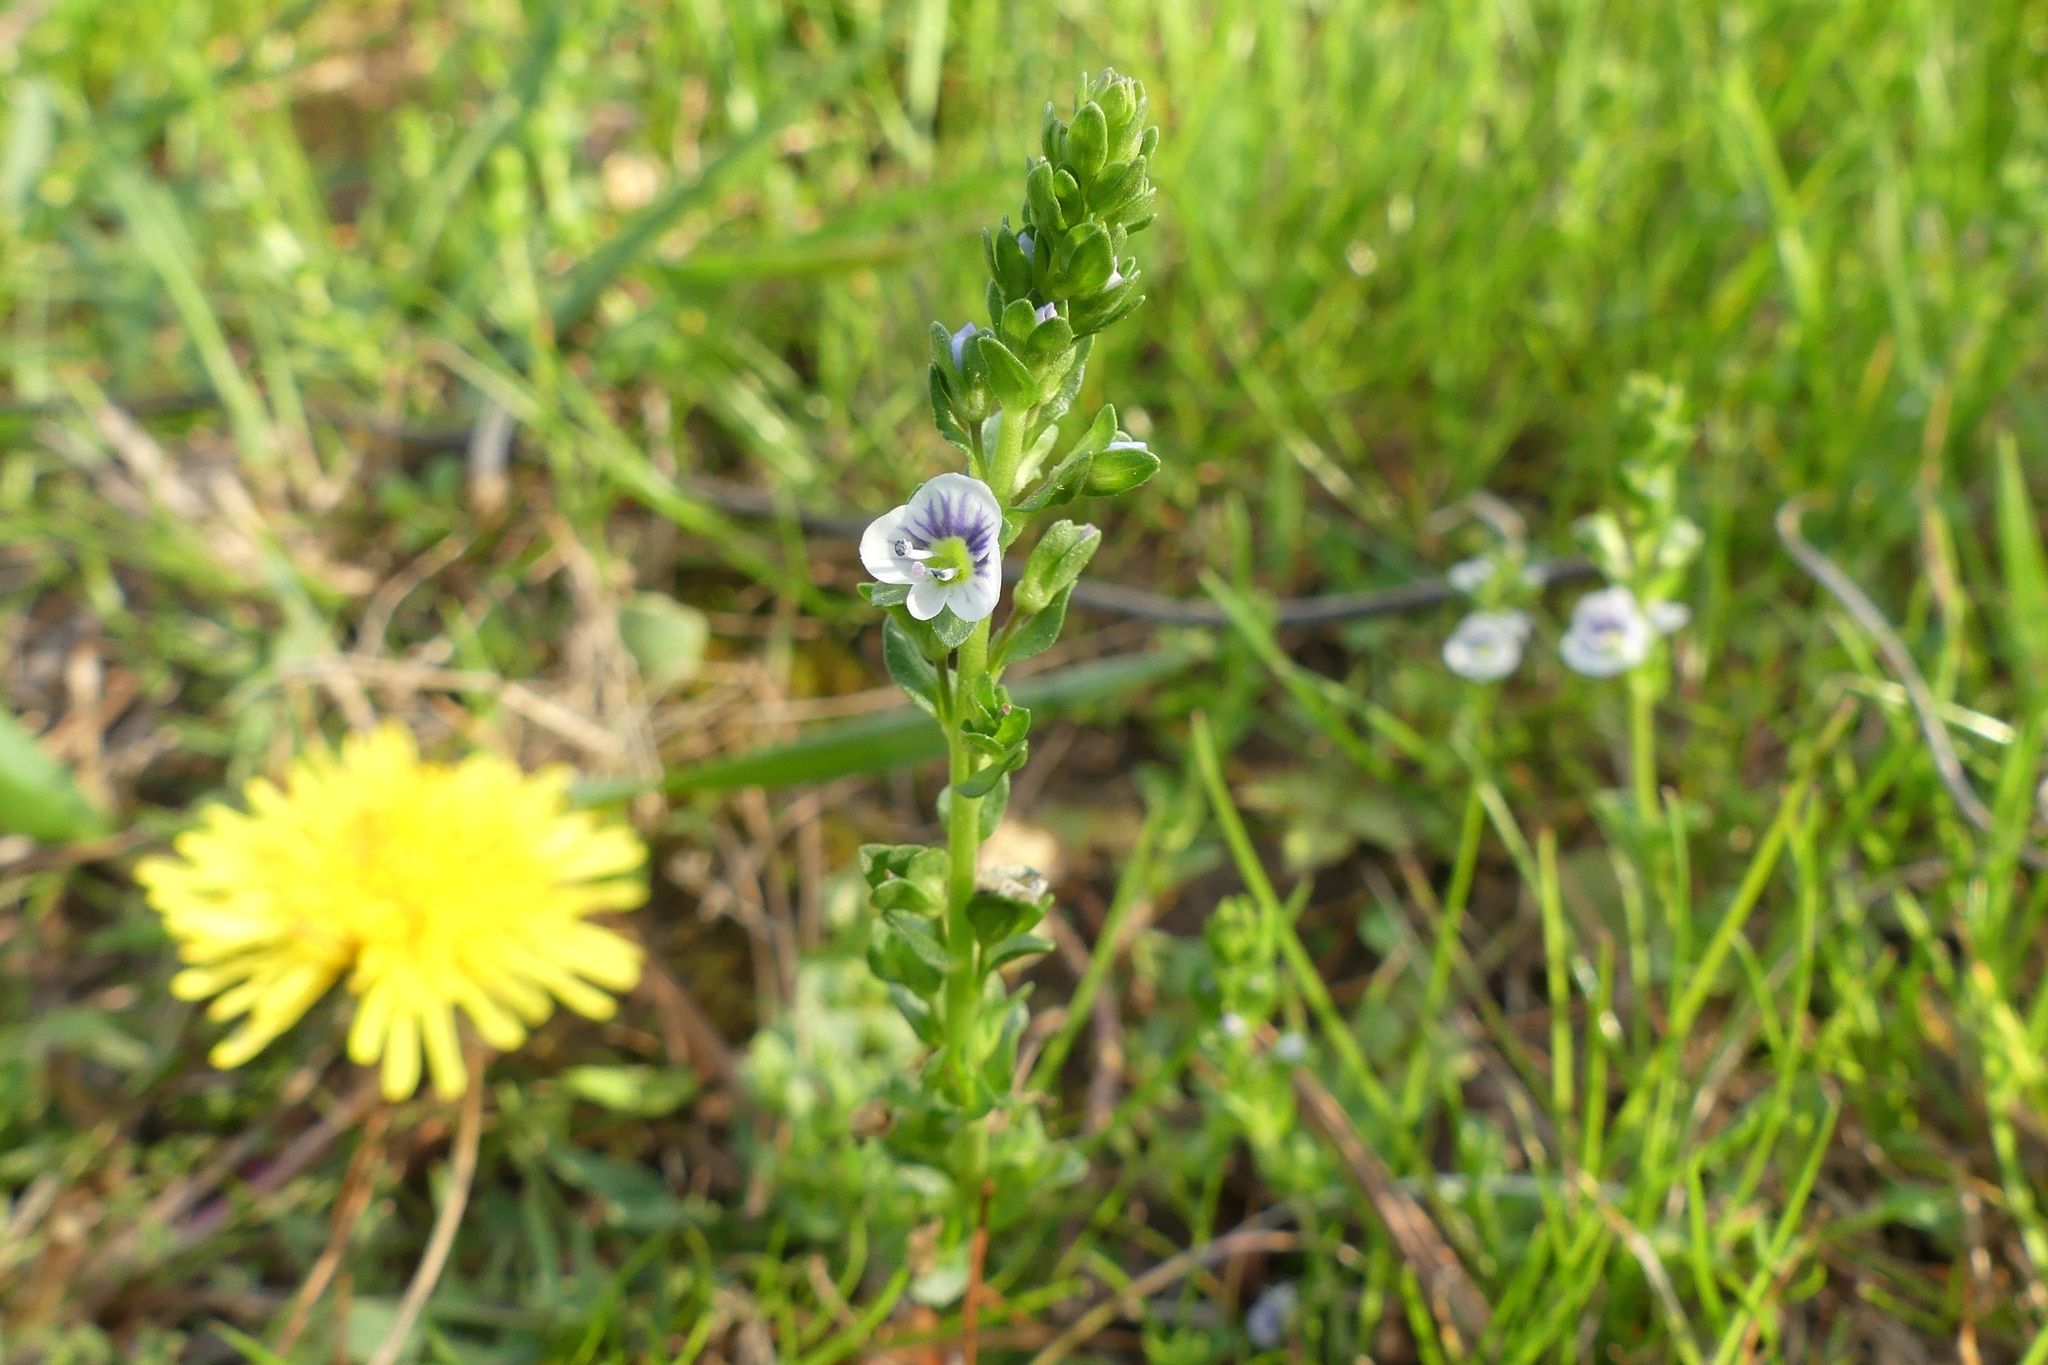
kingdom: Plantae
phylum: Tracheophyta
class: Magnoliopsida
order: Lamiales
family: Plantaginaceae
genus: Veronica
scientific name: Veronica serpyllifolia
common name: Thyme-leaved speedwell
